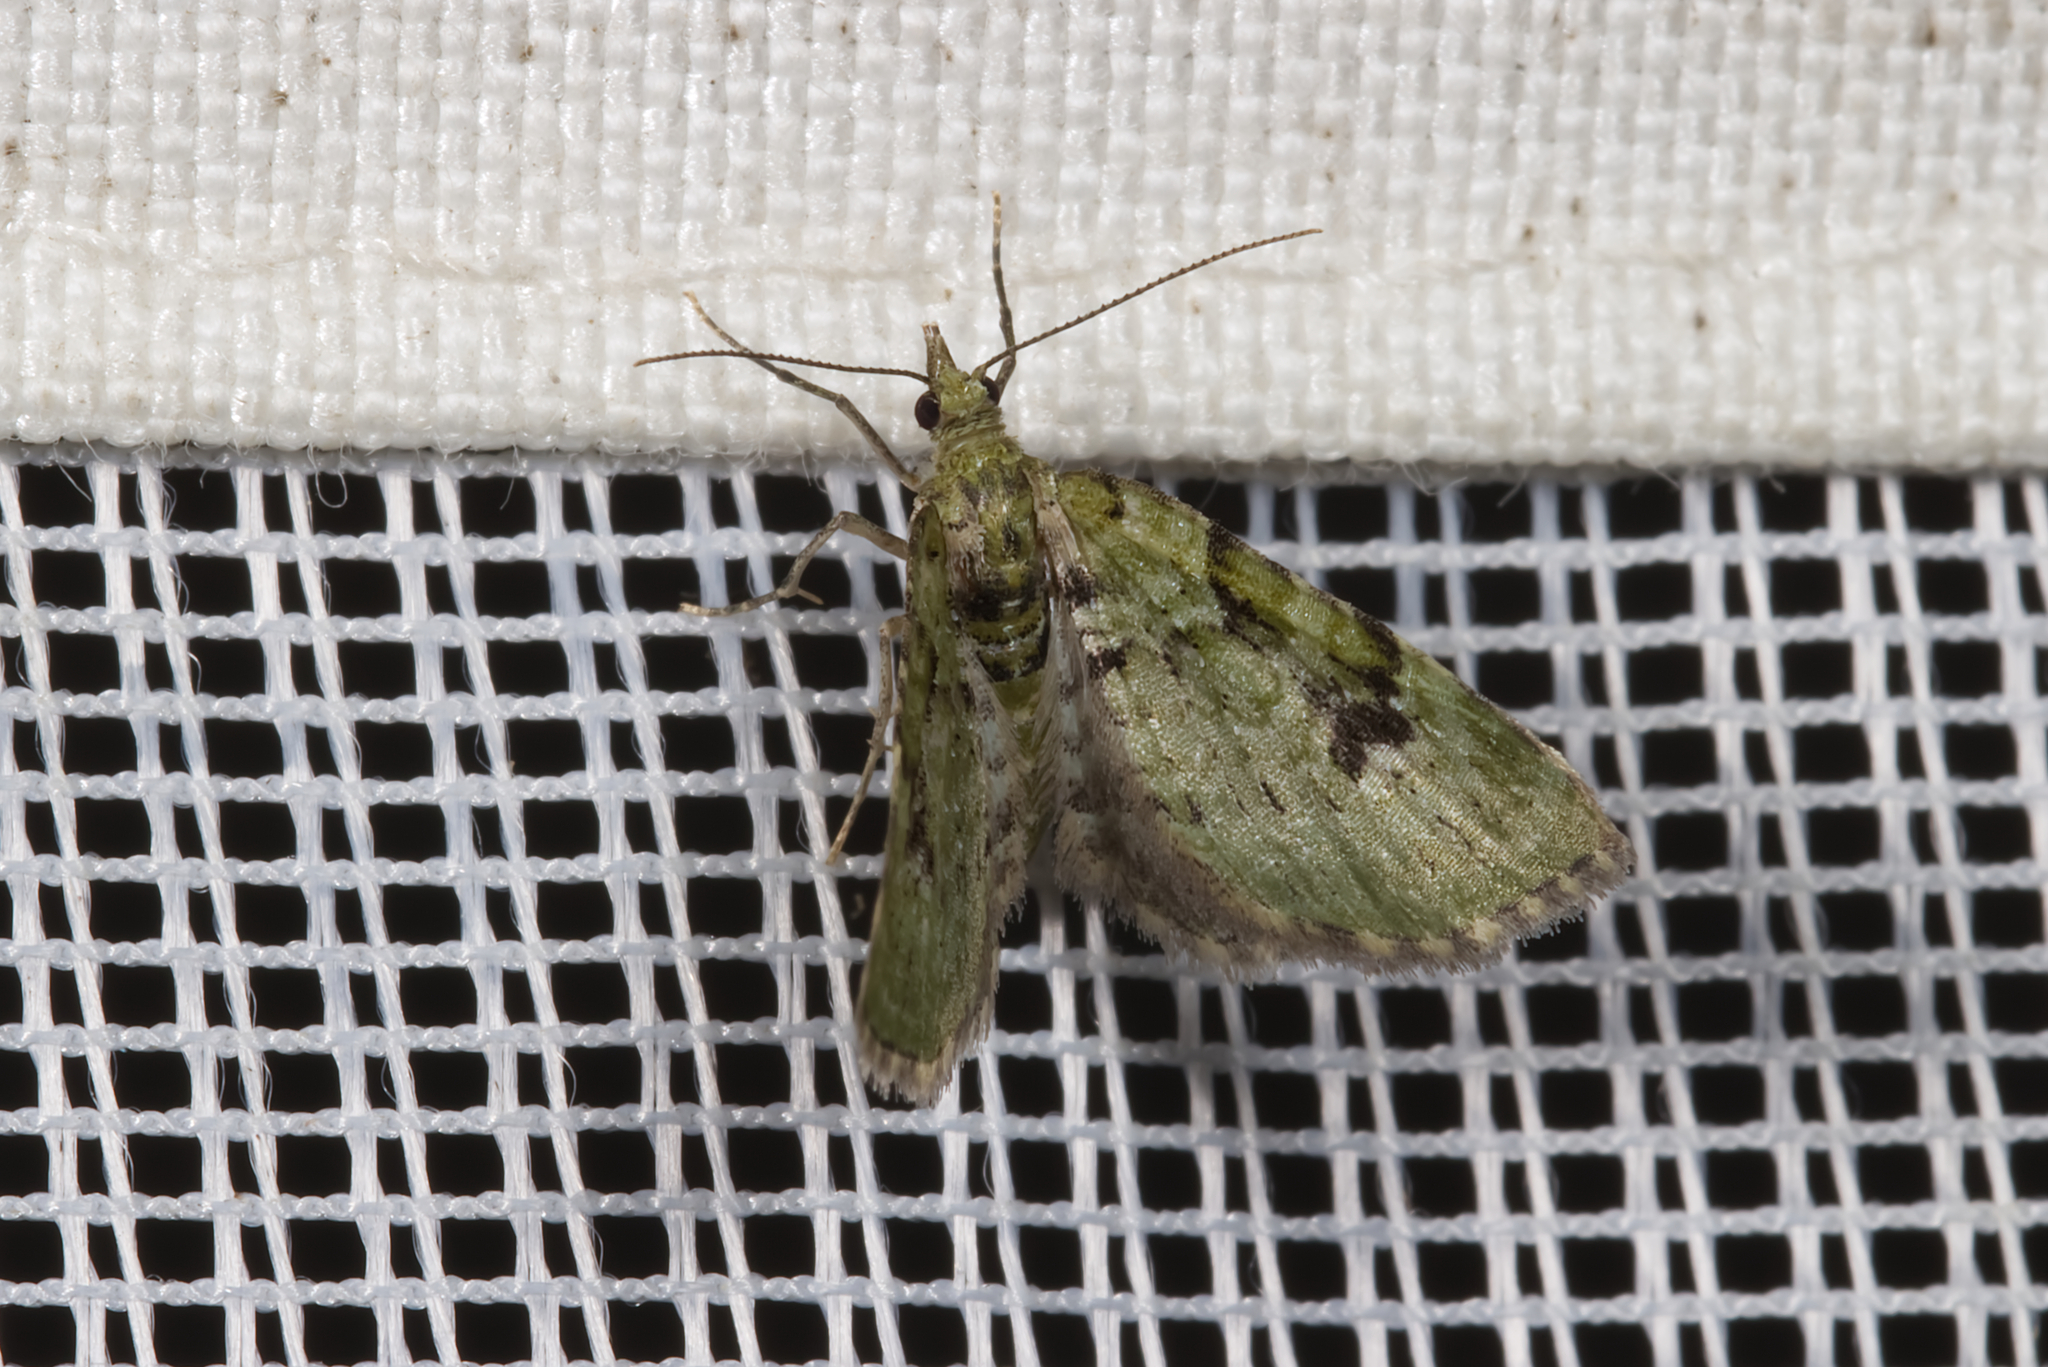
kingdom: Animalia
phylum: Arthropoda
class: Insecta
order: Lepidoptera
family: Geometridae
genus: Chloroclystis
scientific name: Chloroclystis v-ata
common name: V-pug
